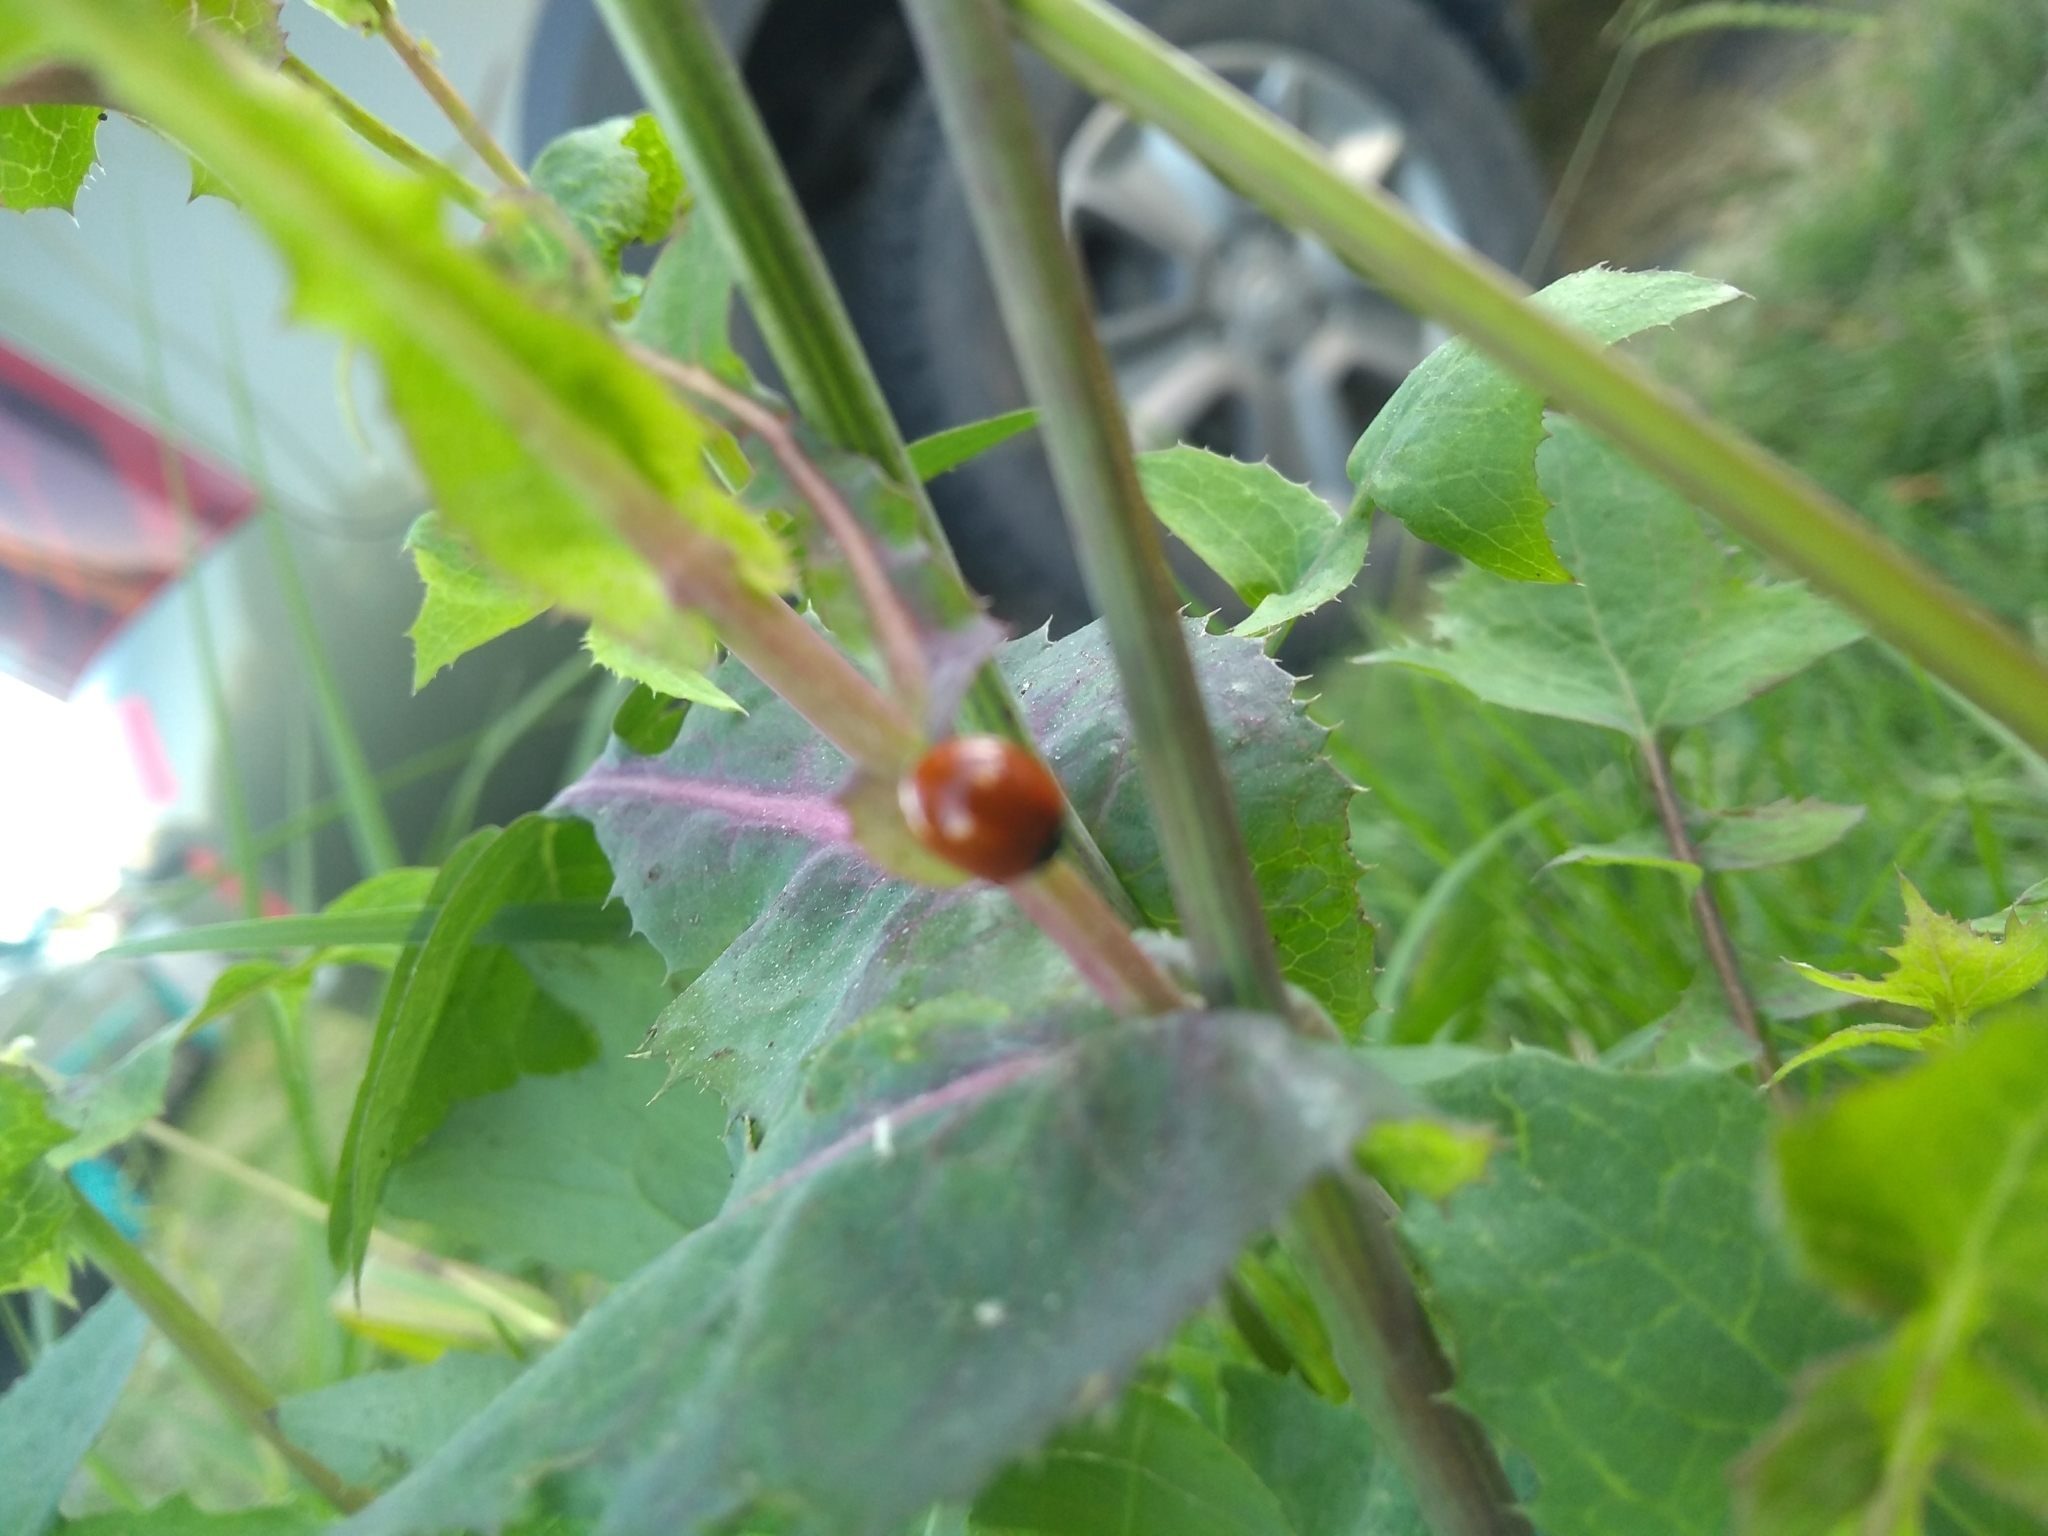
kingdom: Animalia
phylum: Arthropoda
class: Insecta
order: Coleoptera
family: Coccinellidae
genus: Cycloneda
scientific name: Cycloneda sanguinea
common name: Ladybird beetle
